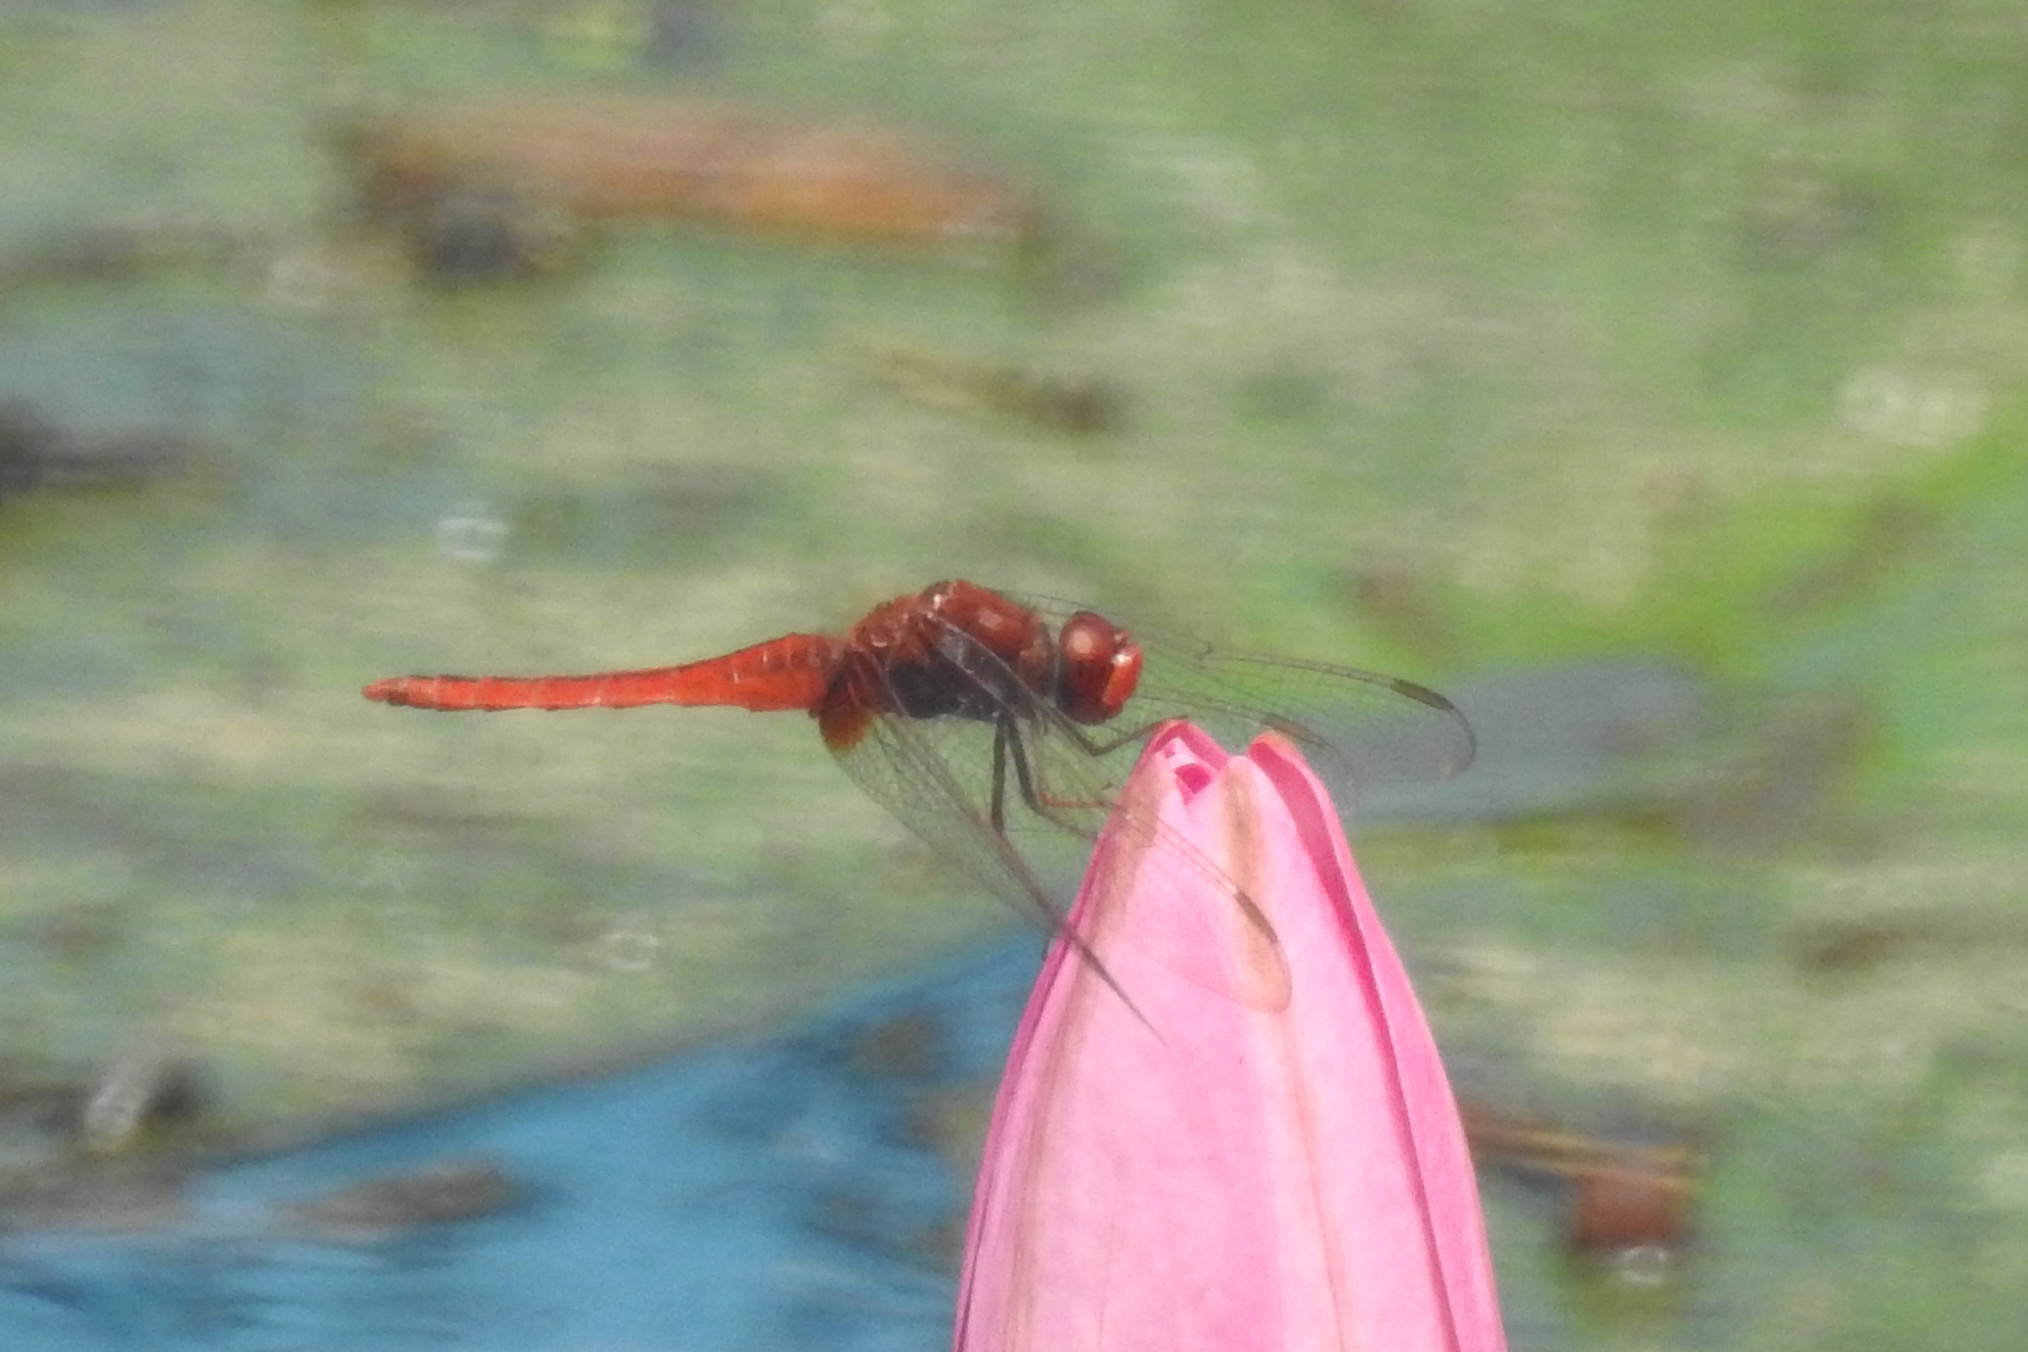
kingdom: Animalia
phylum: Arthropoda
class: Insecta
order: Odonata
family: Libellulidae
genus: Crocothemis
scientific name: Crocothemis servilia
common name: Scarlet skimmer
